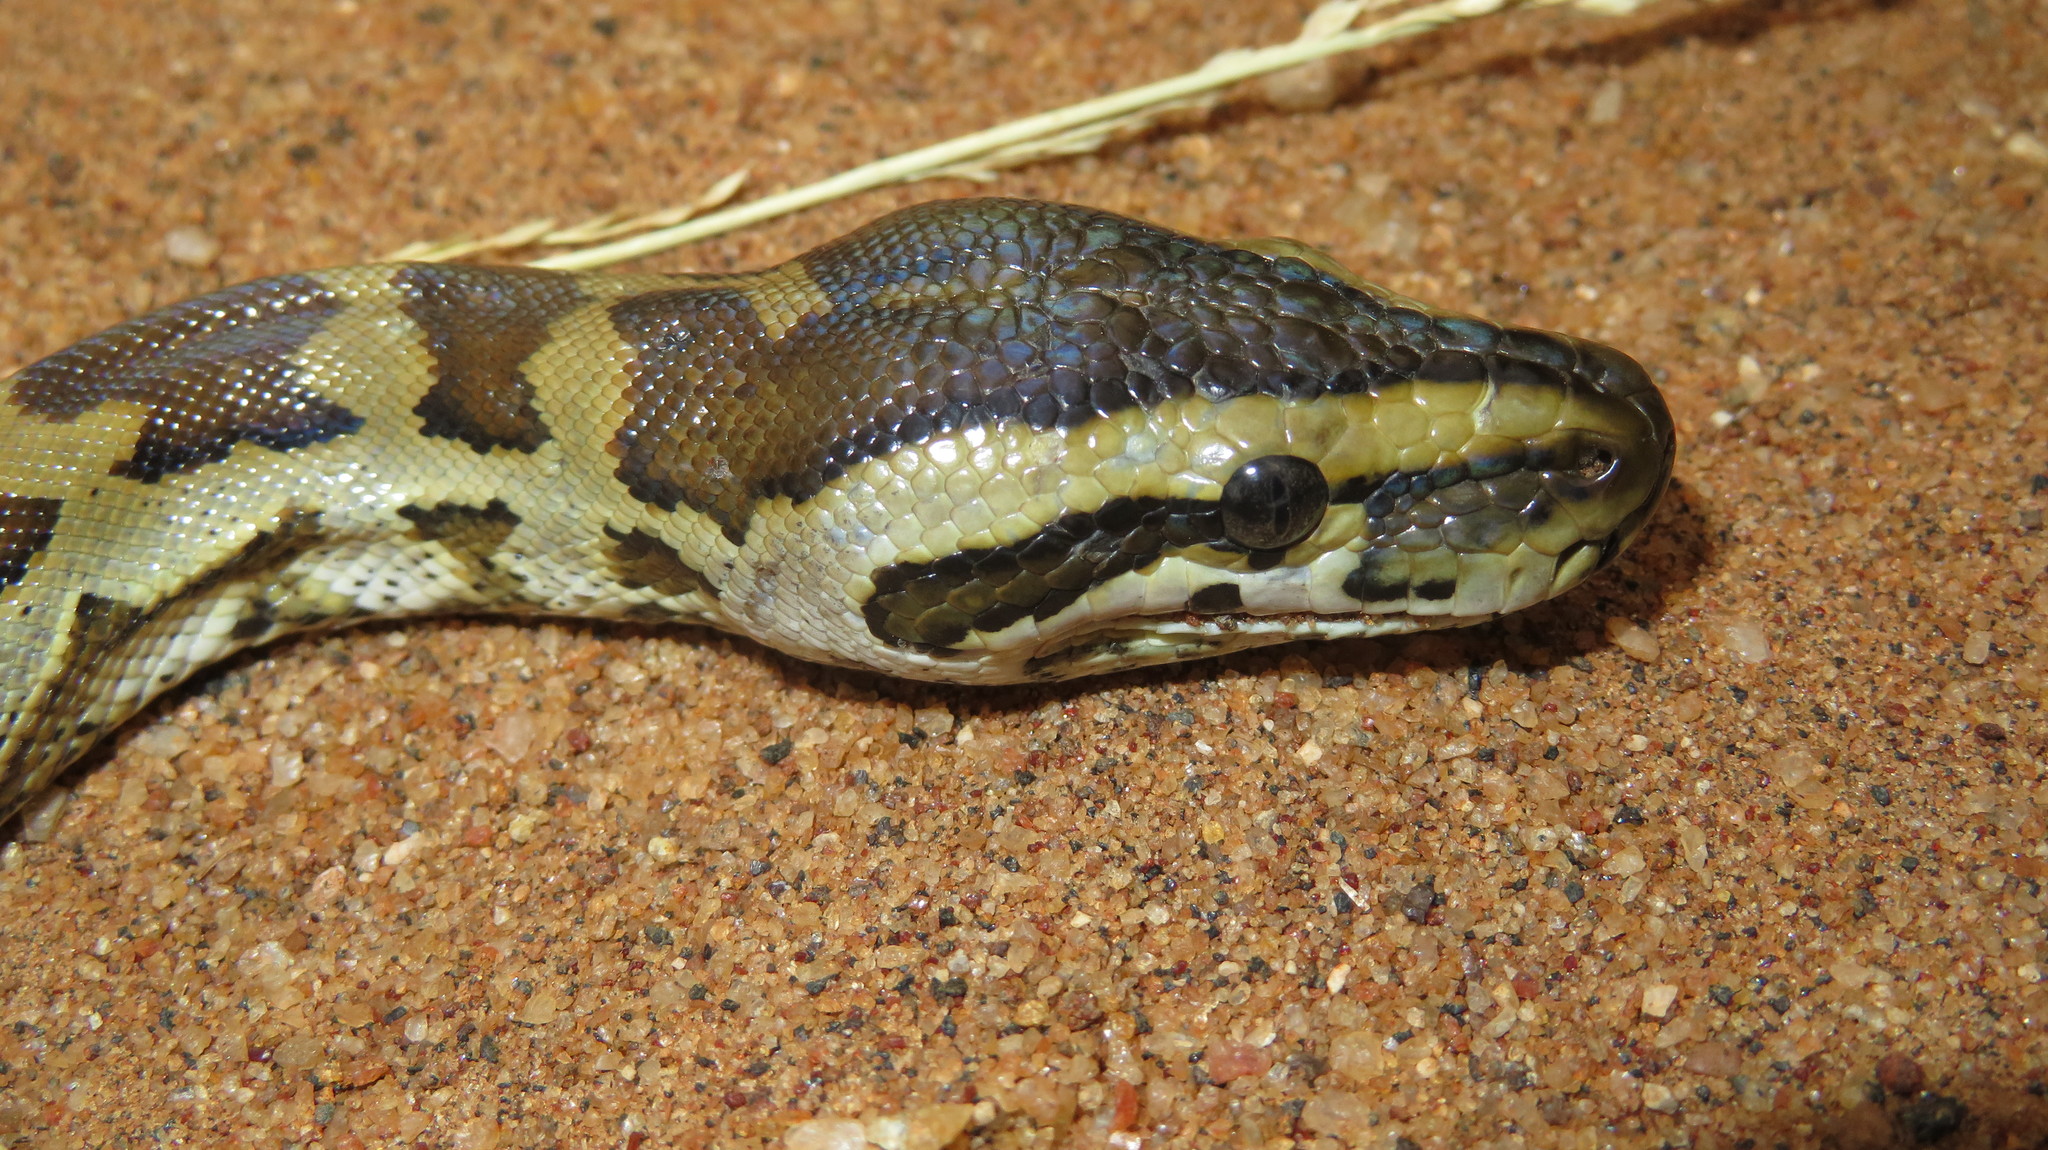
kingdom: Animalia
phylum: Chordata
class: Squamata
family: Pythonidae
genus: Python
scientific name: Python natalensis
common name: Southern african rock python
